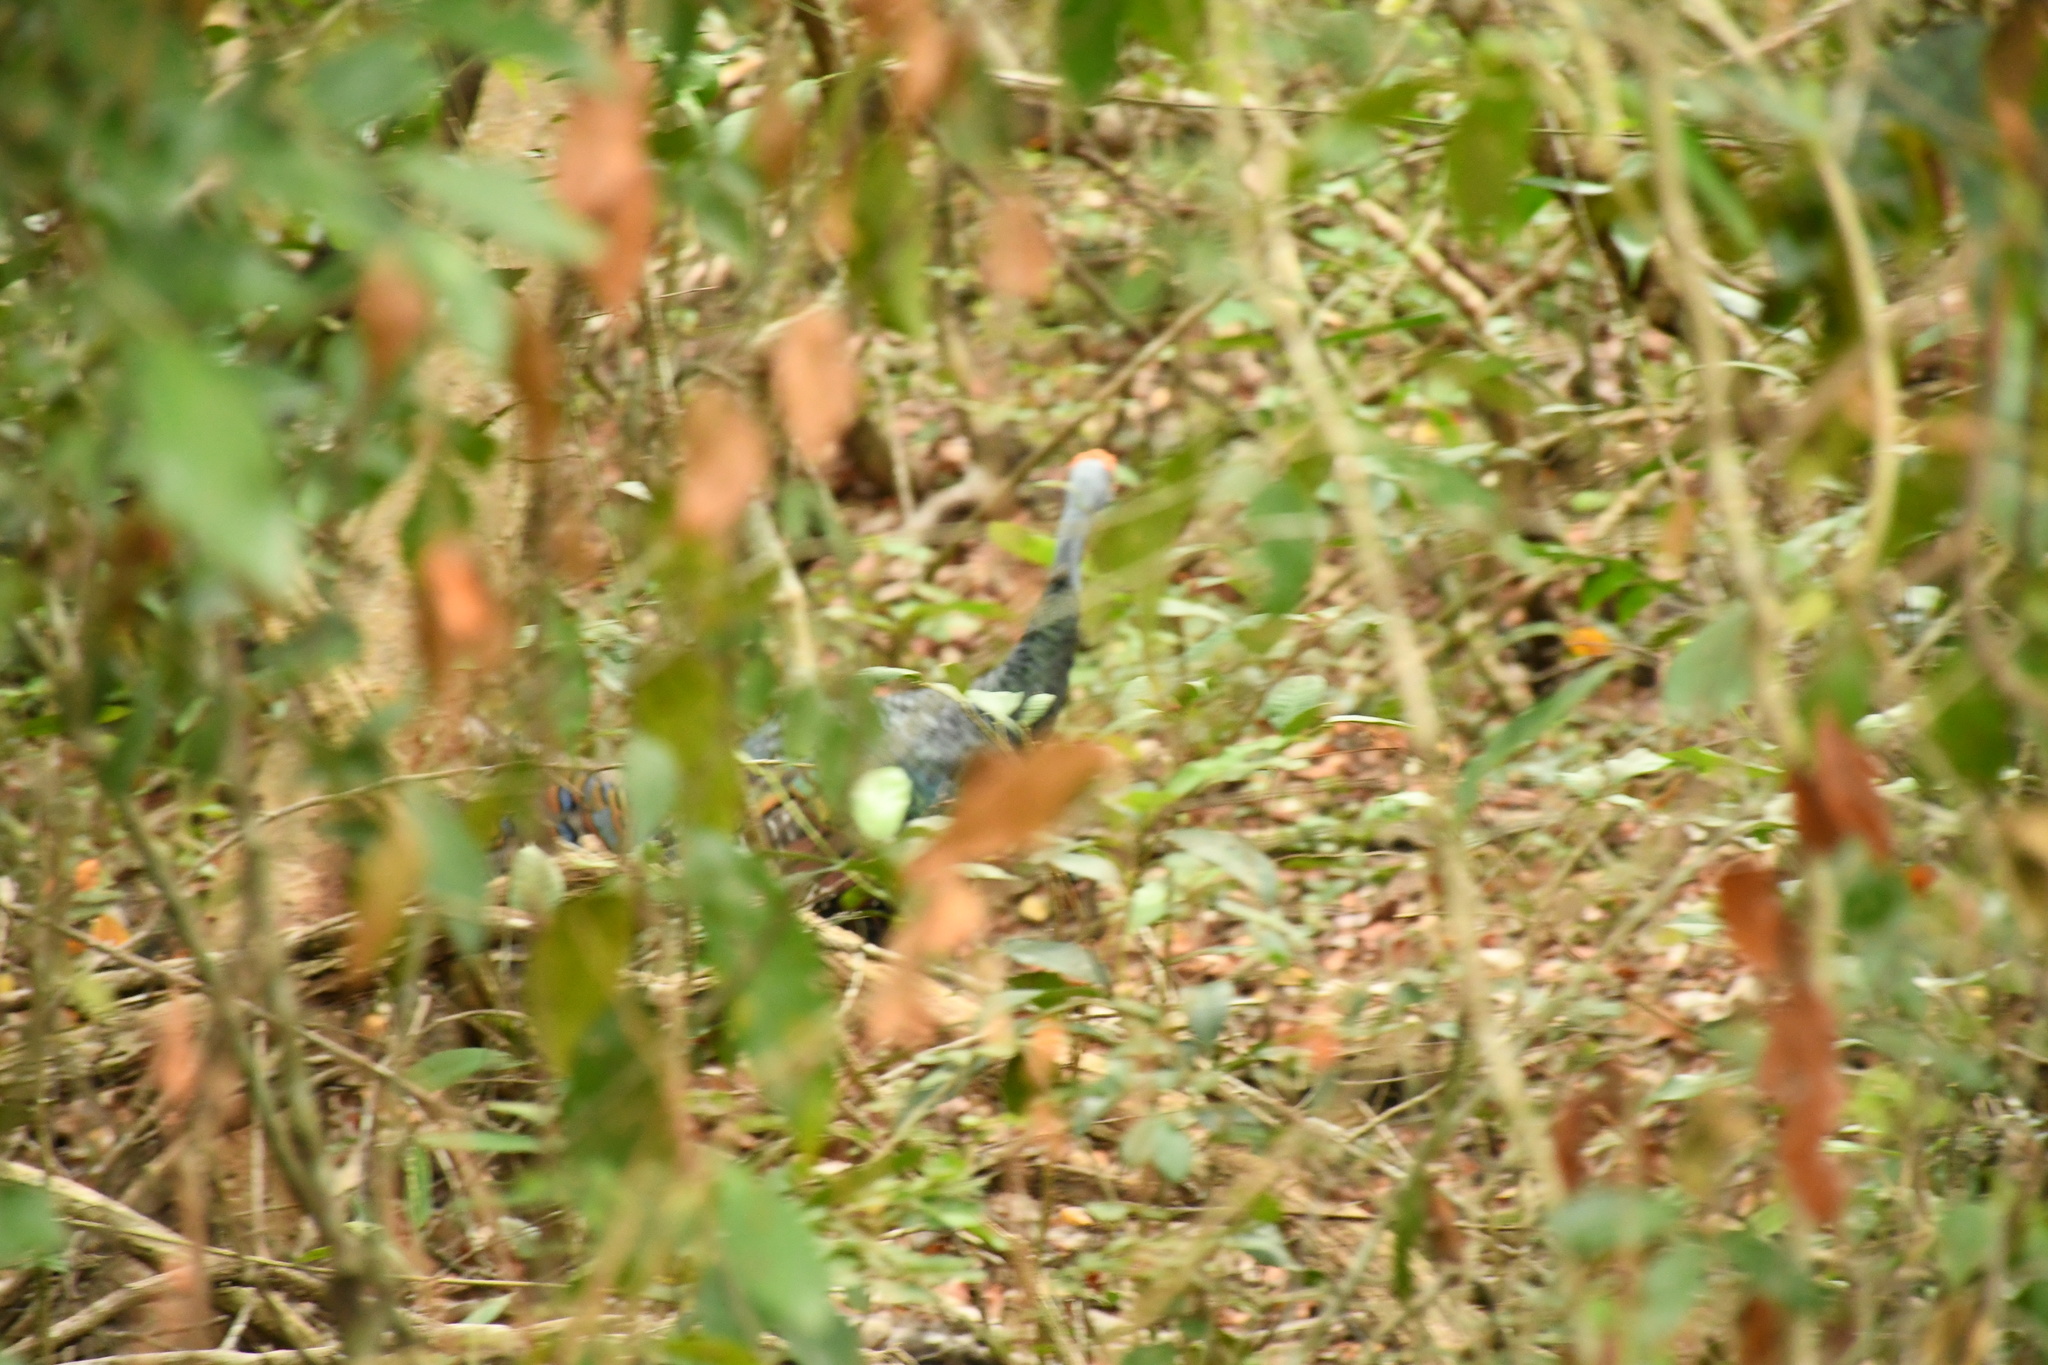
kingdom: Animalia
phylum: Chordata
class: Aves
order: Galliformes
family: Phasianidae
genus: Meleagris
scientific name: Meleagris ocellata
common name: Ocellated turkey
